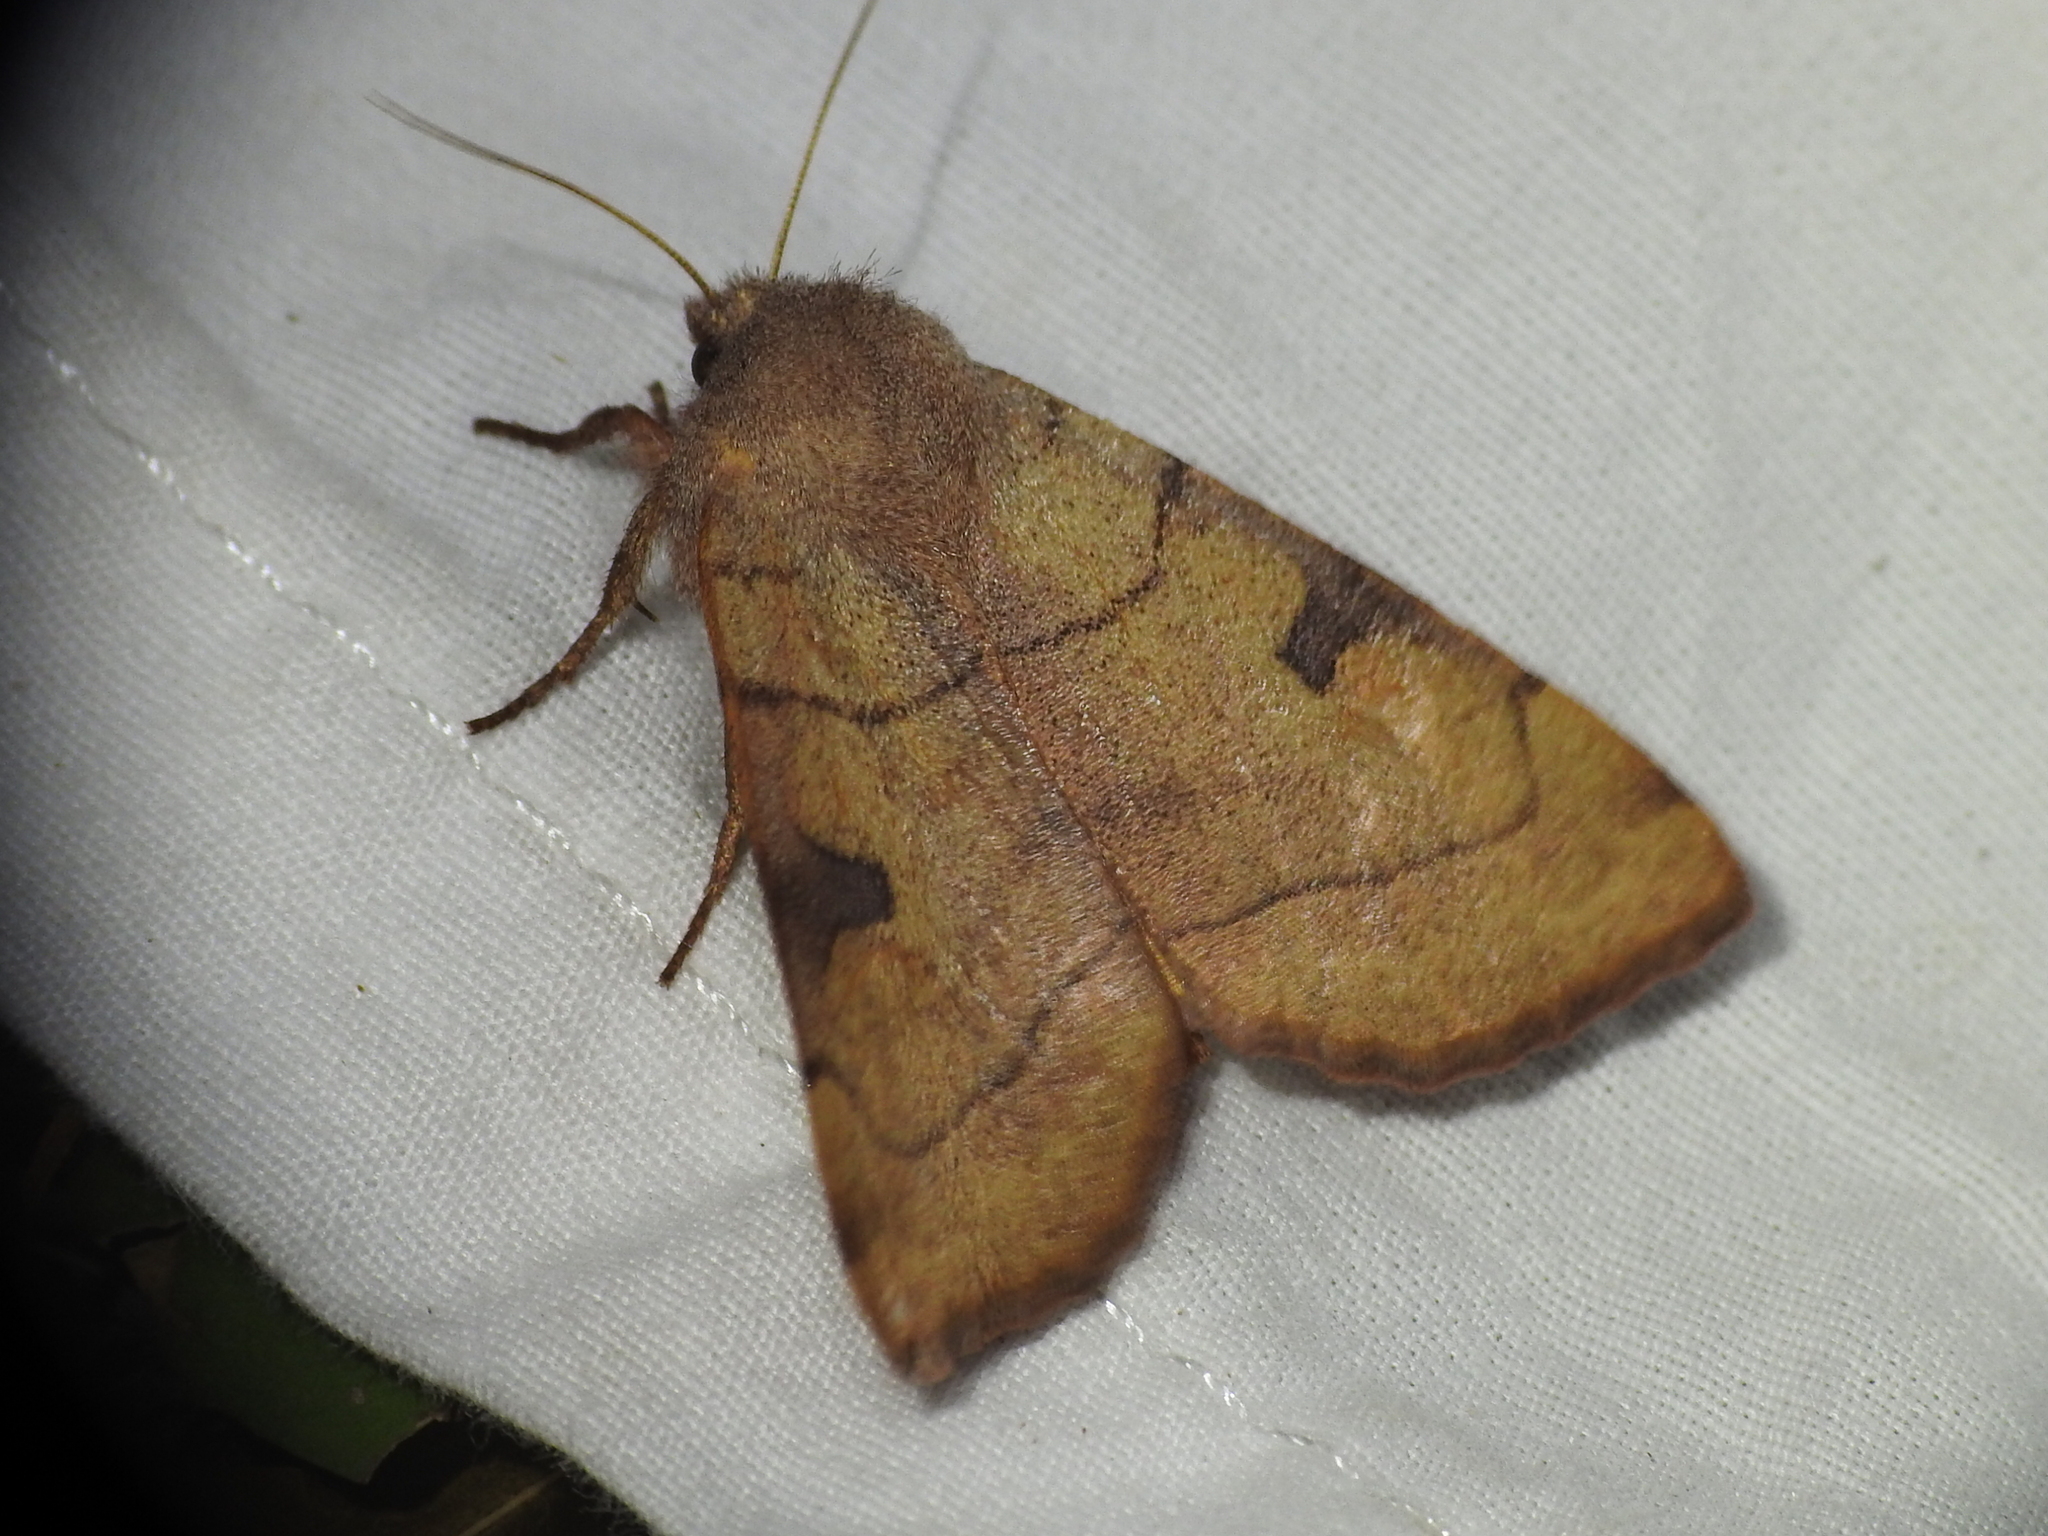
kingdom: Animalia
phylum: Arthropoda
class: Insecta
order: Lepidoptera
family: Noctuidae
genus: Choephora
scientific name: Choephora fungorum
